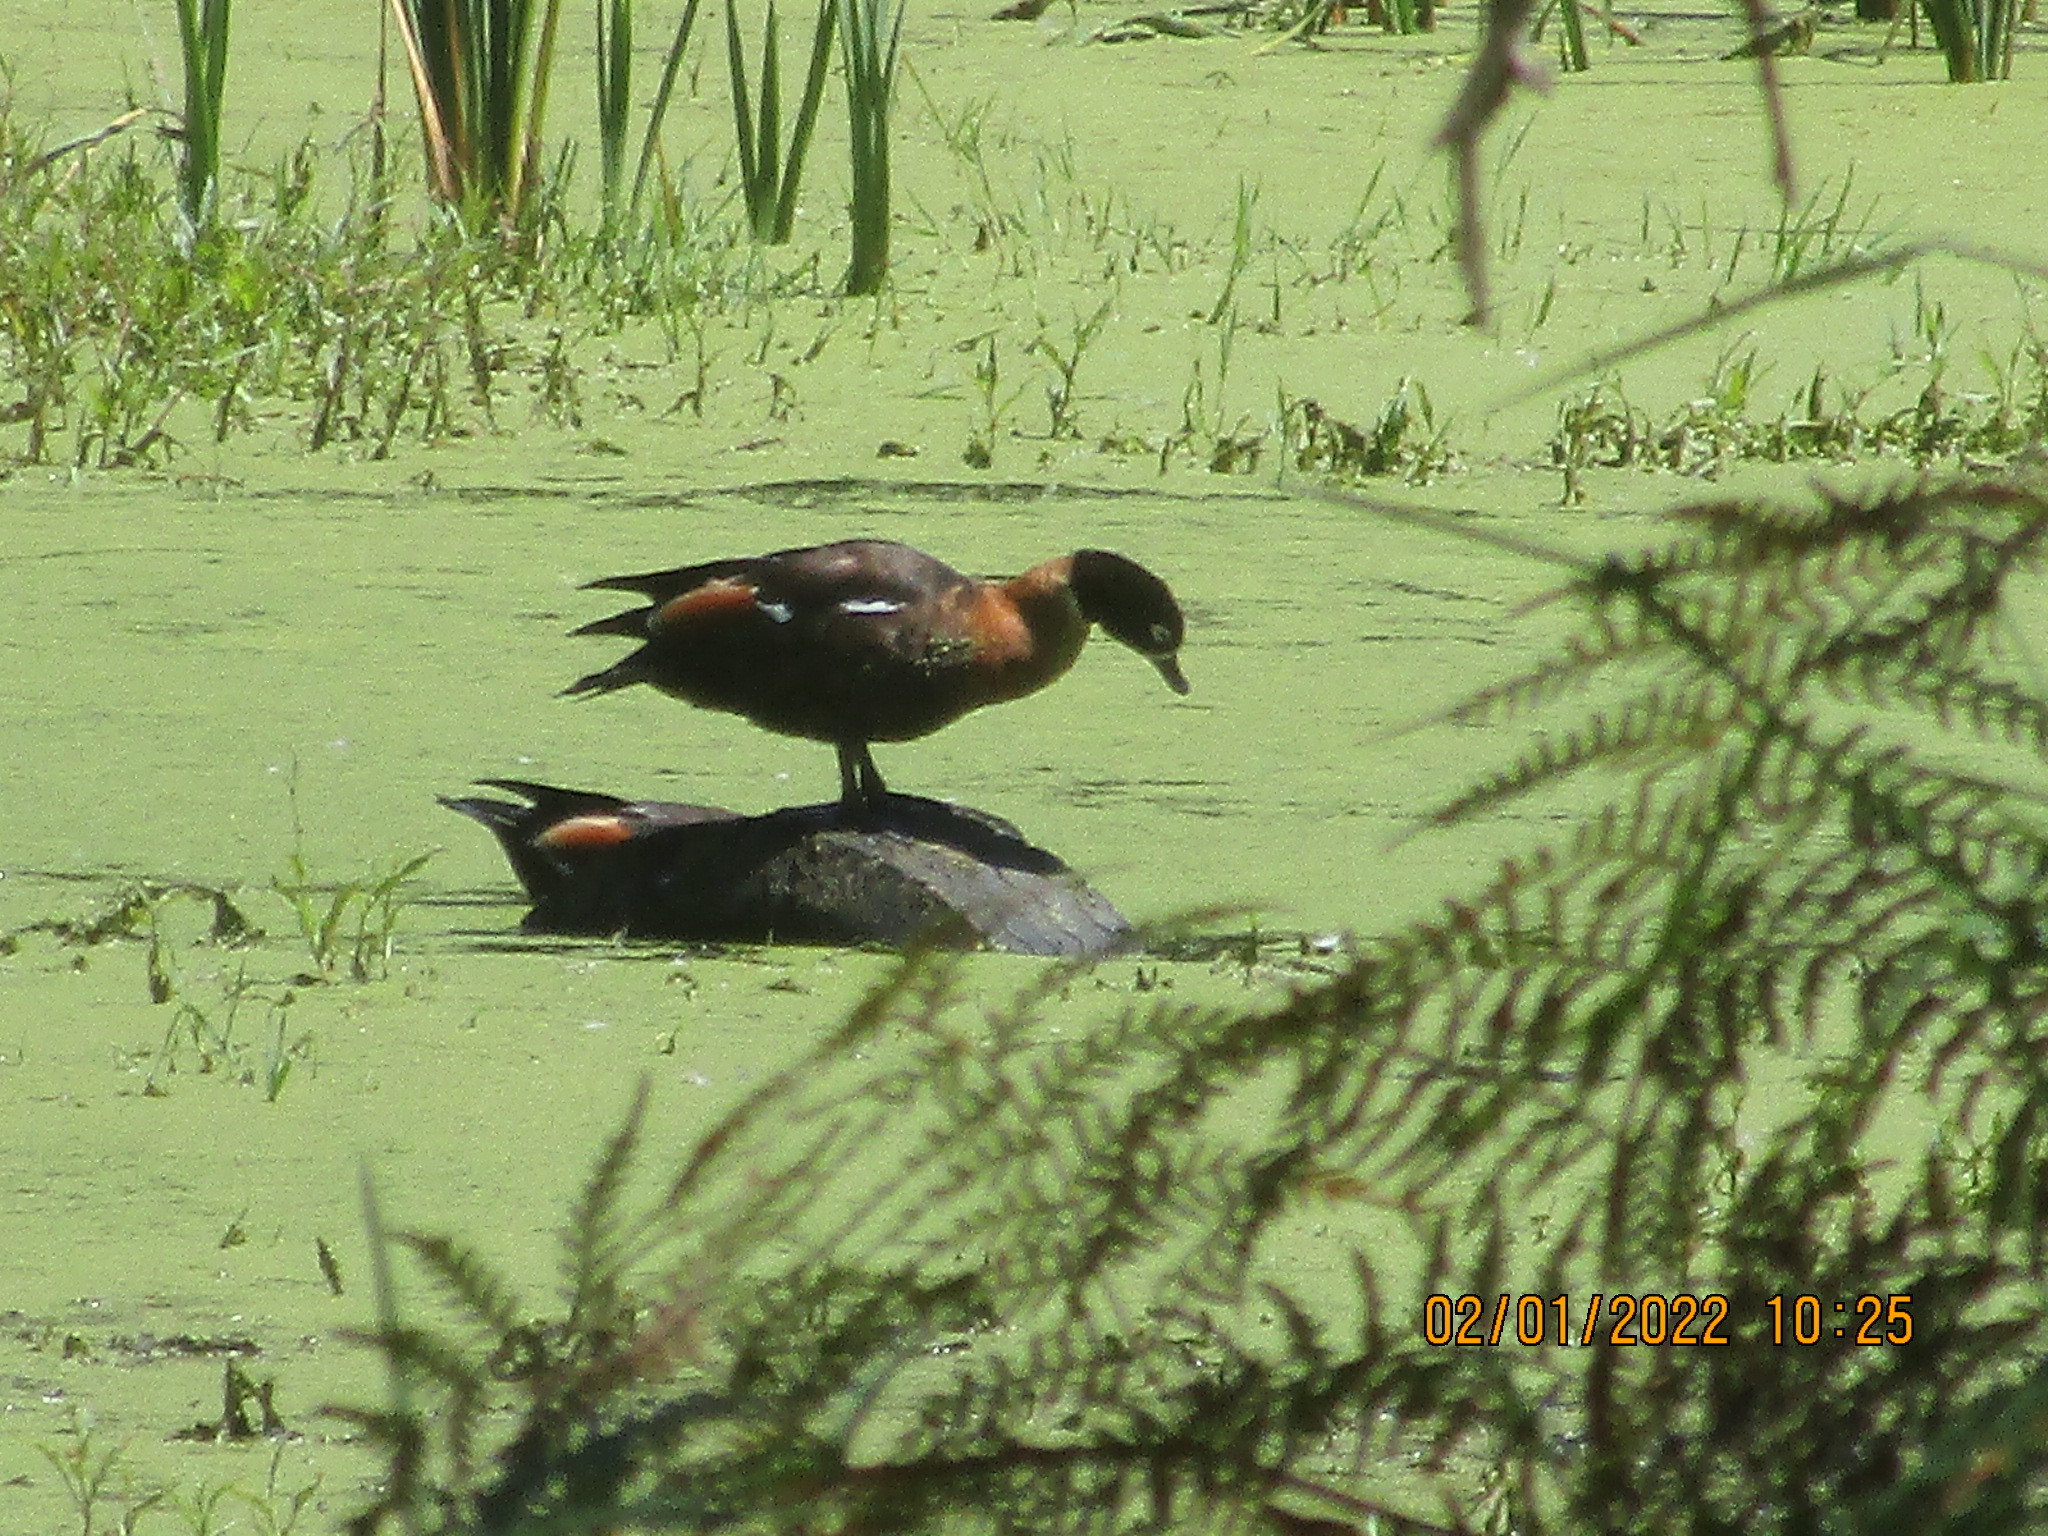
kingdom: Animalia
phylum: Chordata
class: Aves
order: Anseriformes
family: Anatidae
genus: Tadorna
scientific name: Tadorna tadornoides
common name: Australian shelduck
